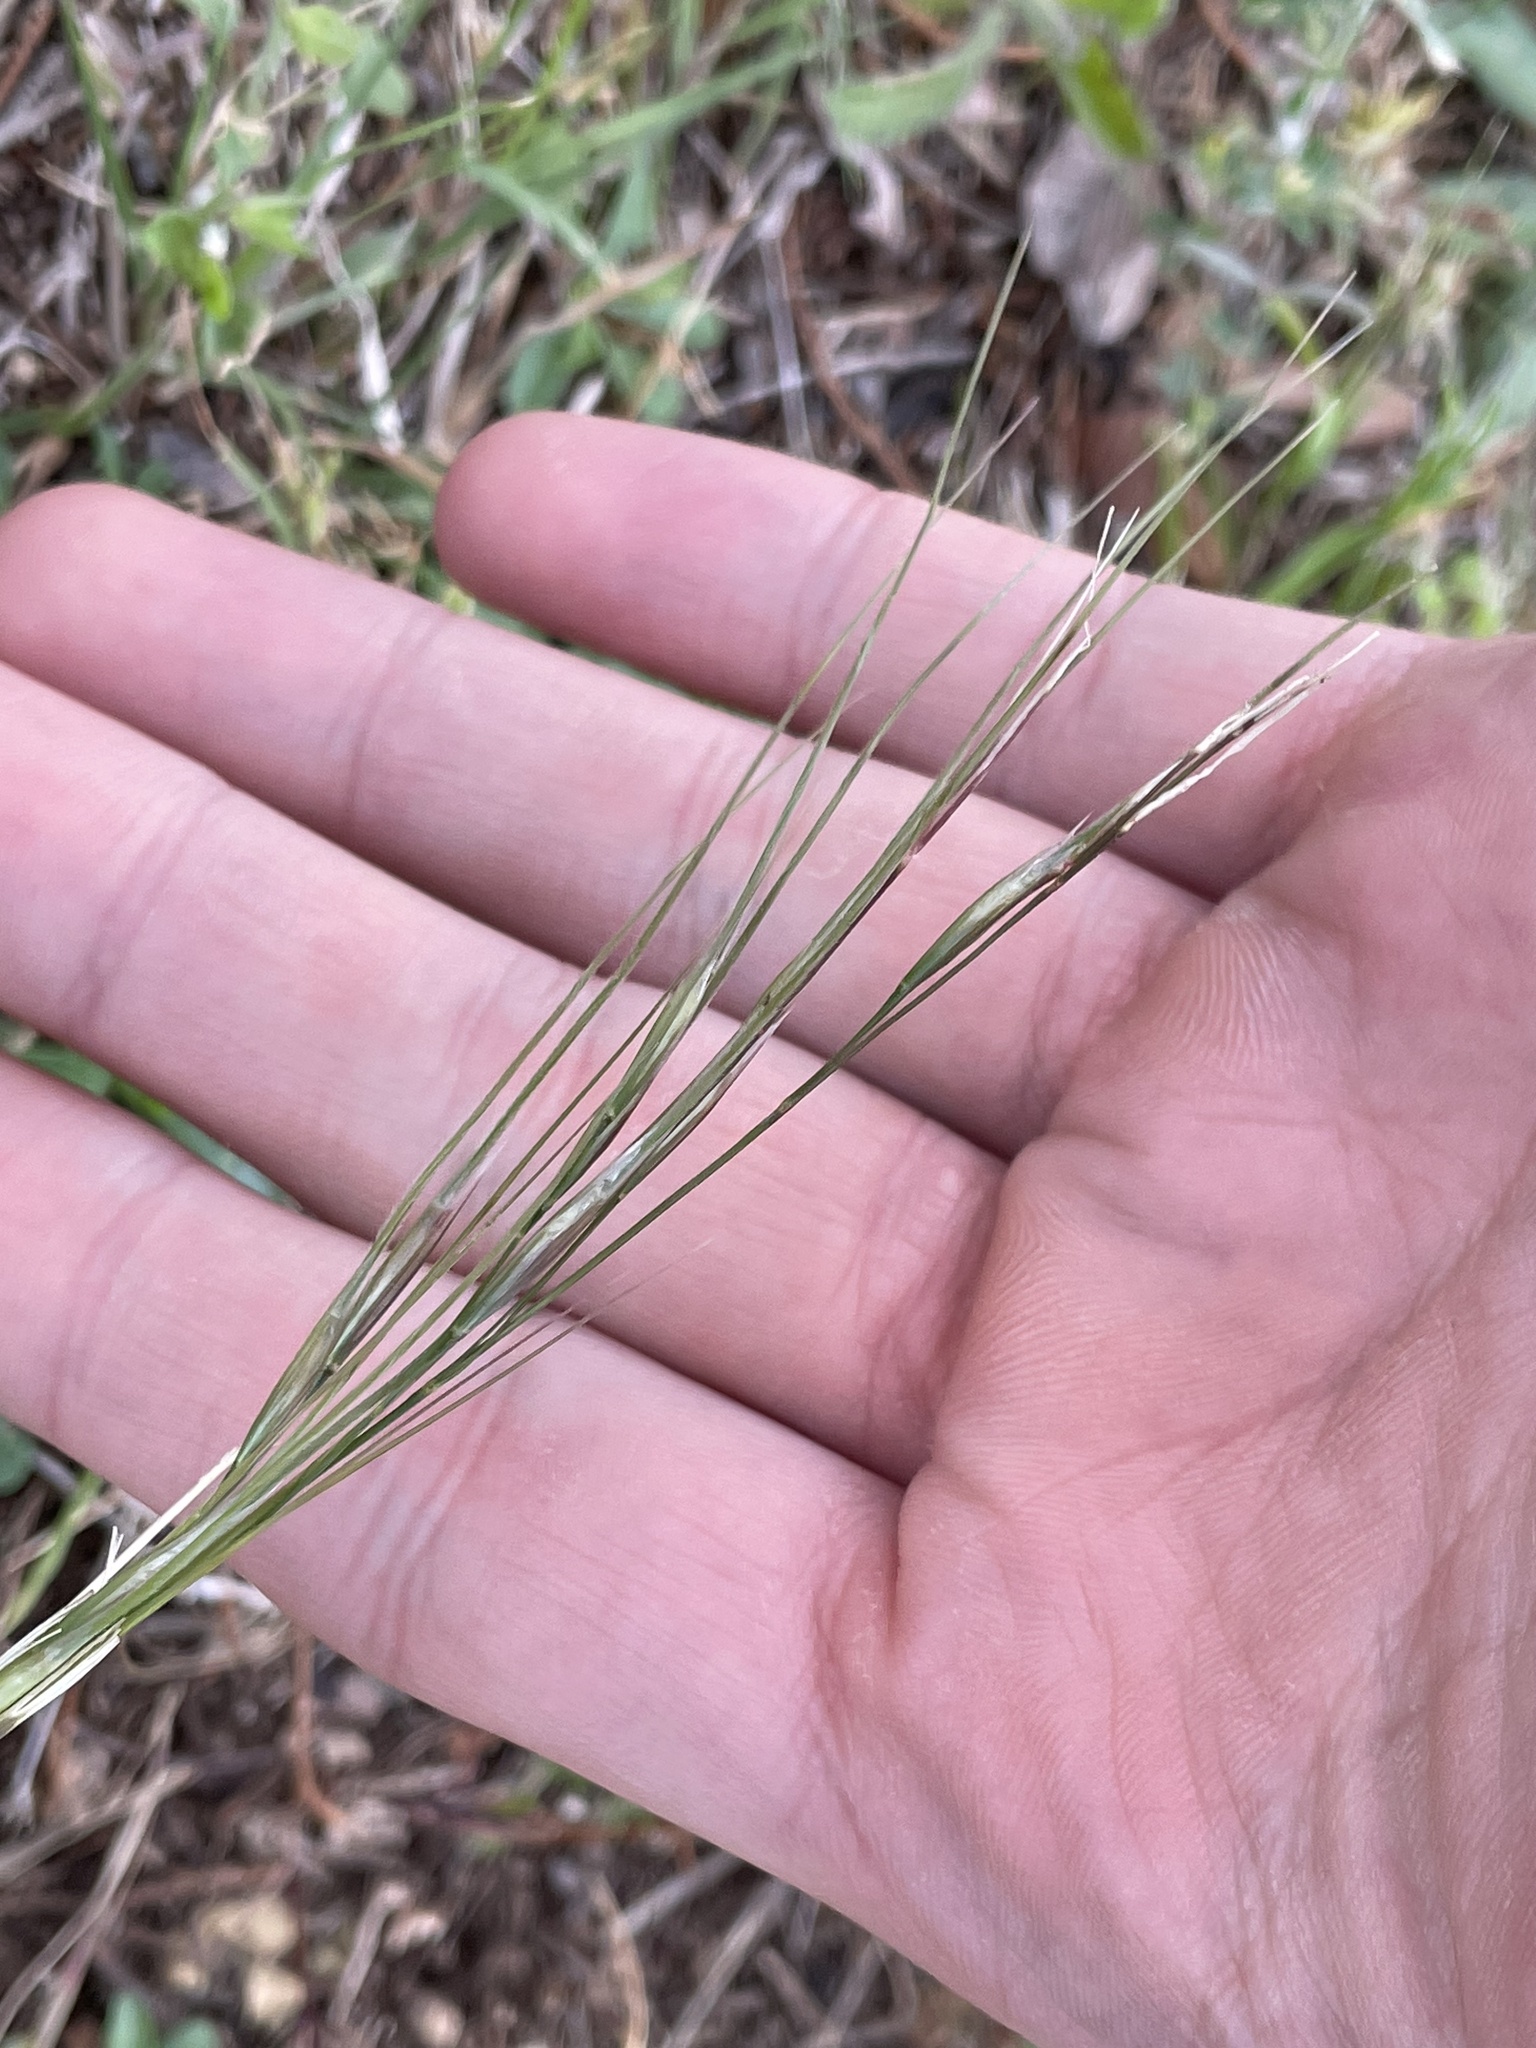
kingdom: Plantae
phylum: Tracheophyta
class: Liliopsida
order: Poales
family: Poaceae
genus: Nassella
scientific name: Nassella leucotricha
